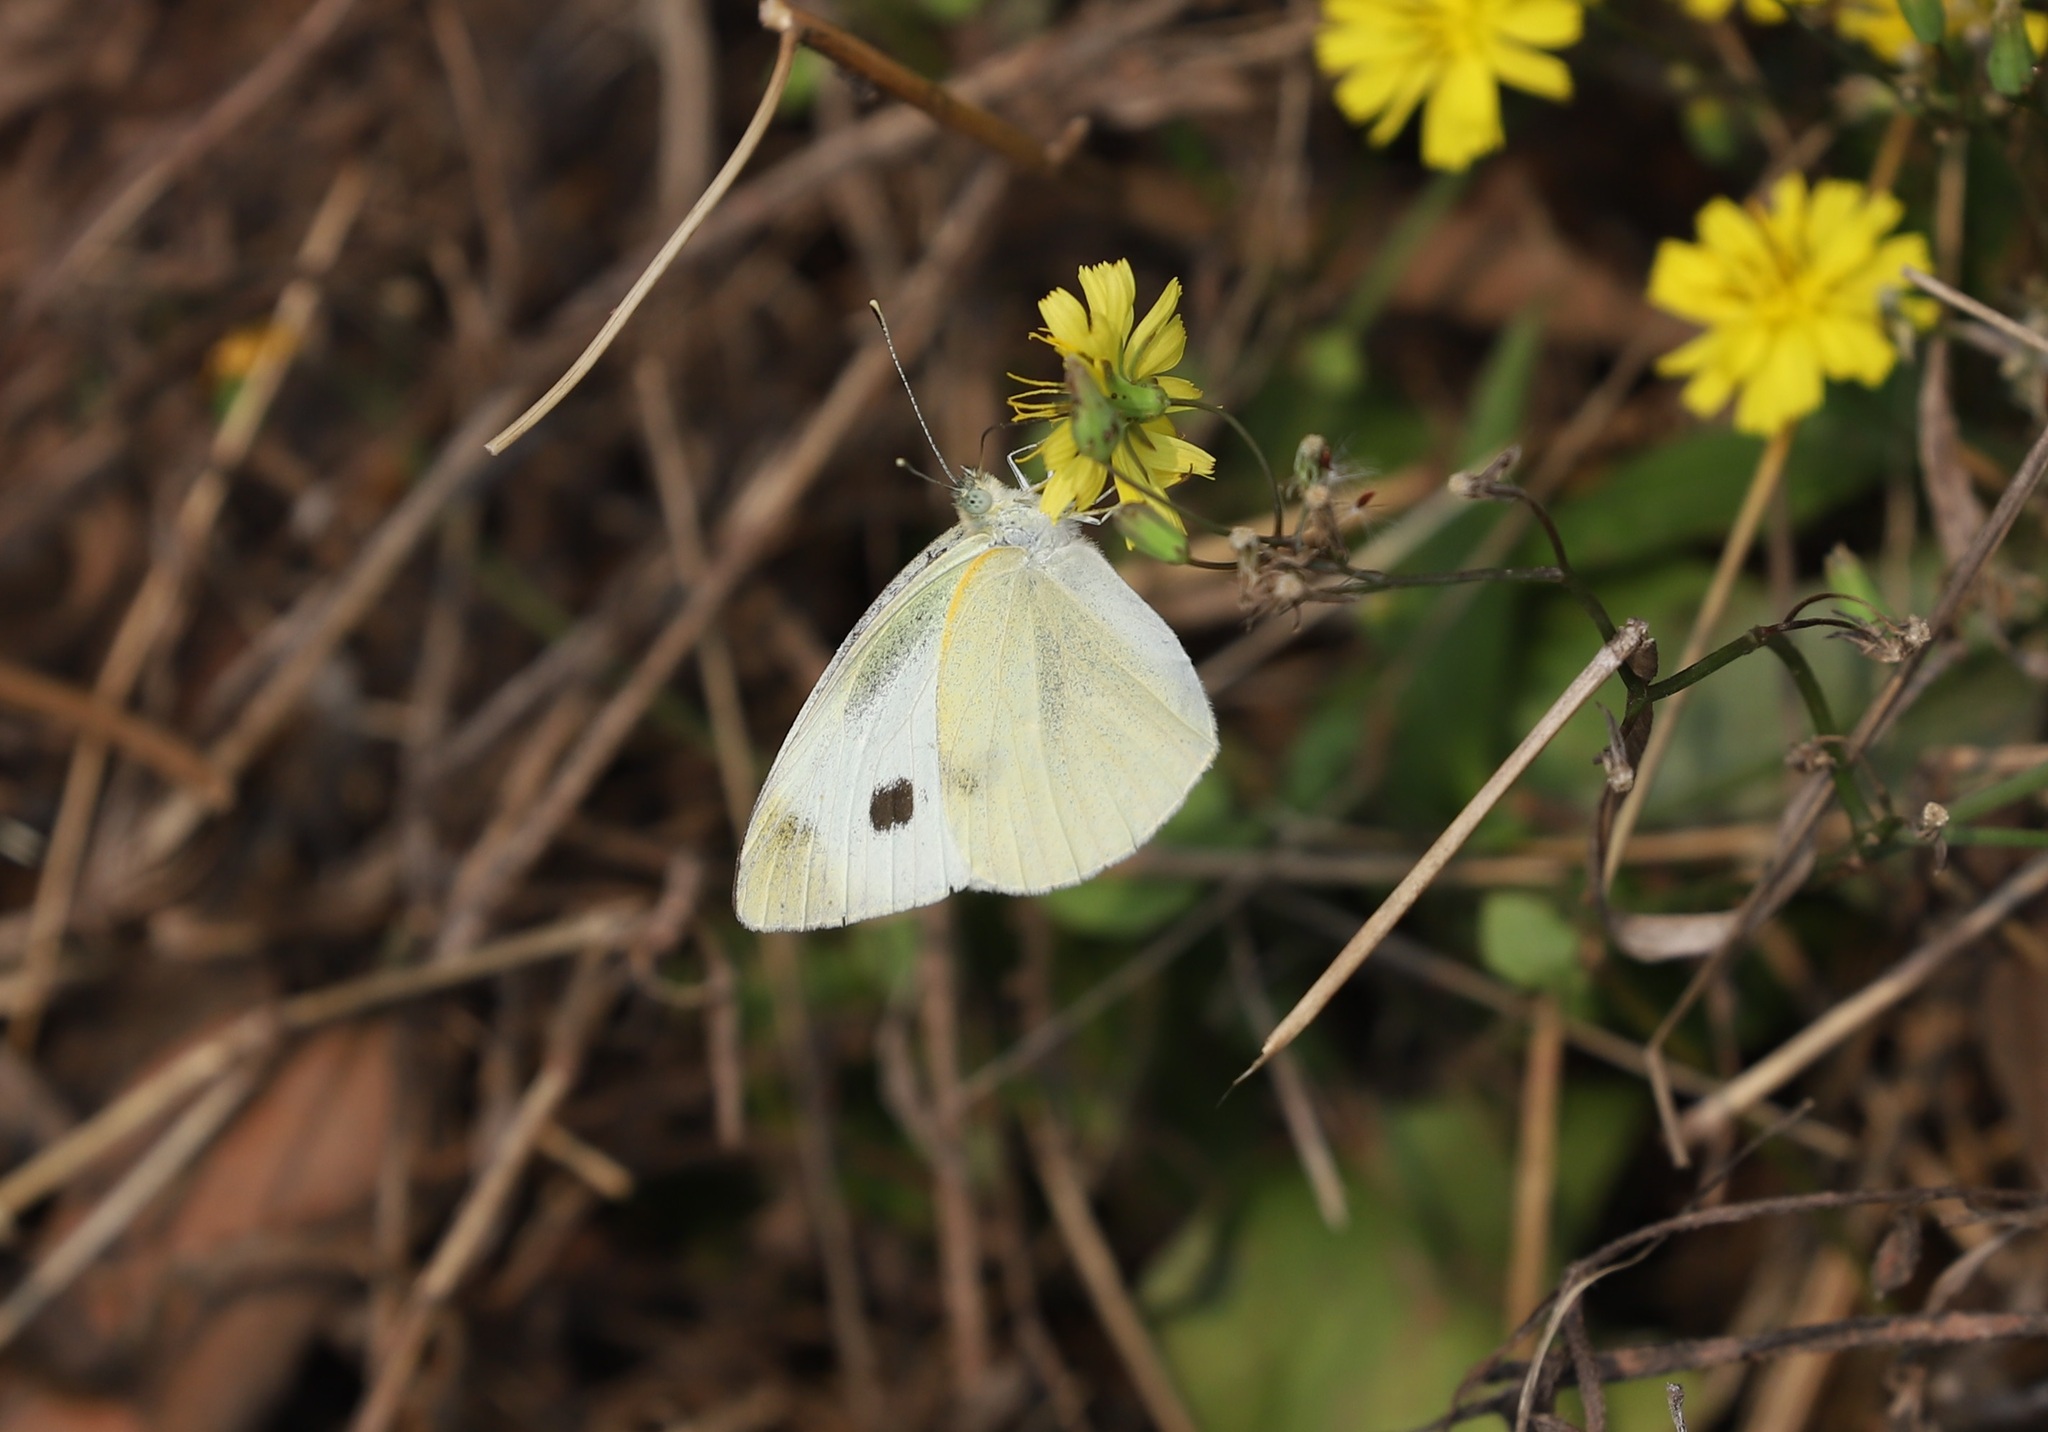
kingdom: Animalia
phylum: Arthropoda
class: Insecta
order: Lepidoptera
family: Pieridae
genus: Pieris
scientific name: Pieris rapae
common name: Small white
